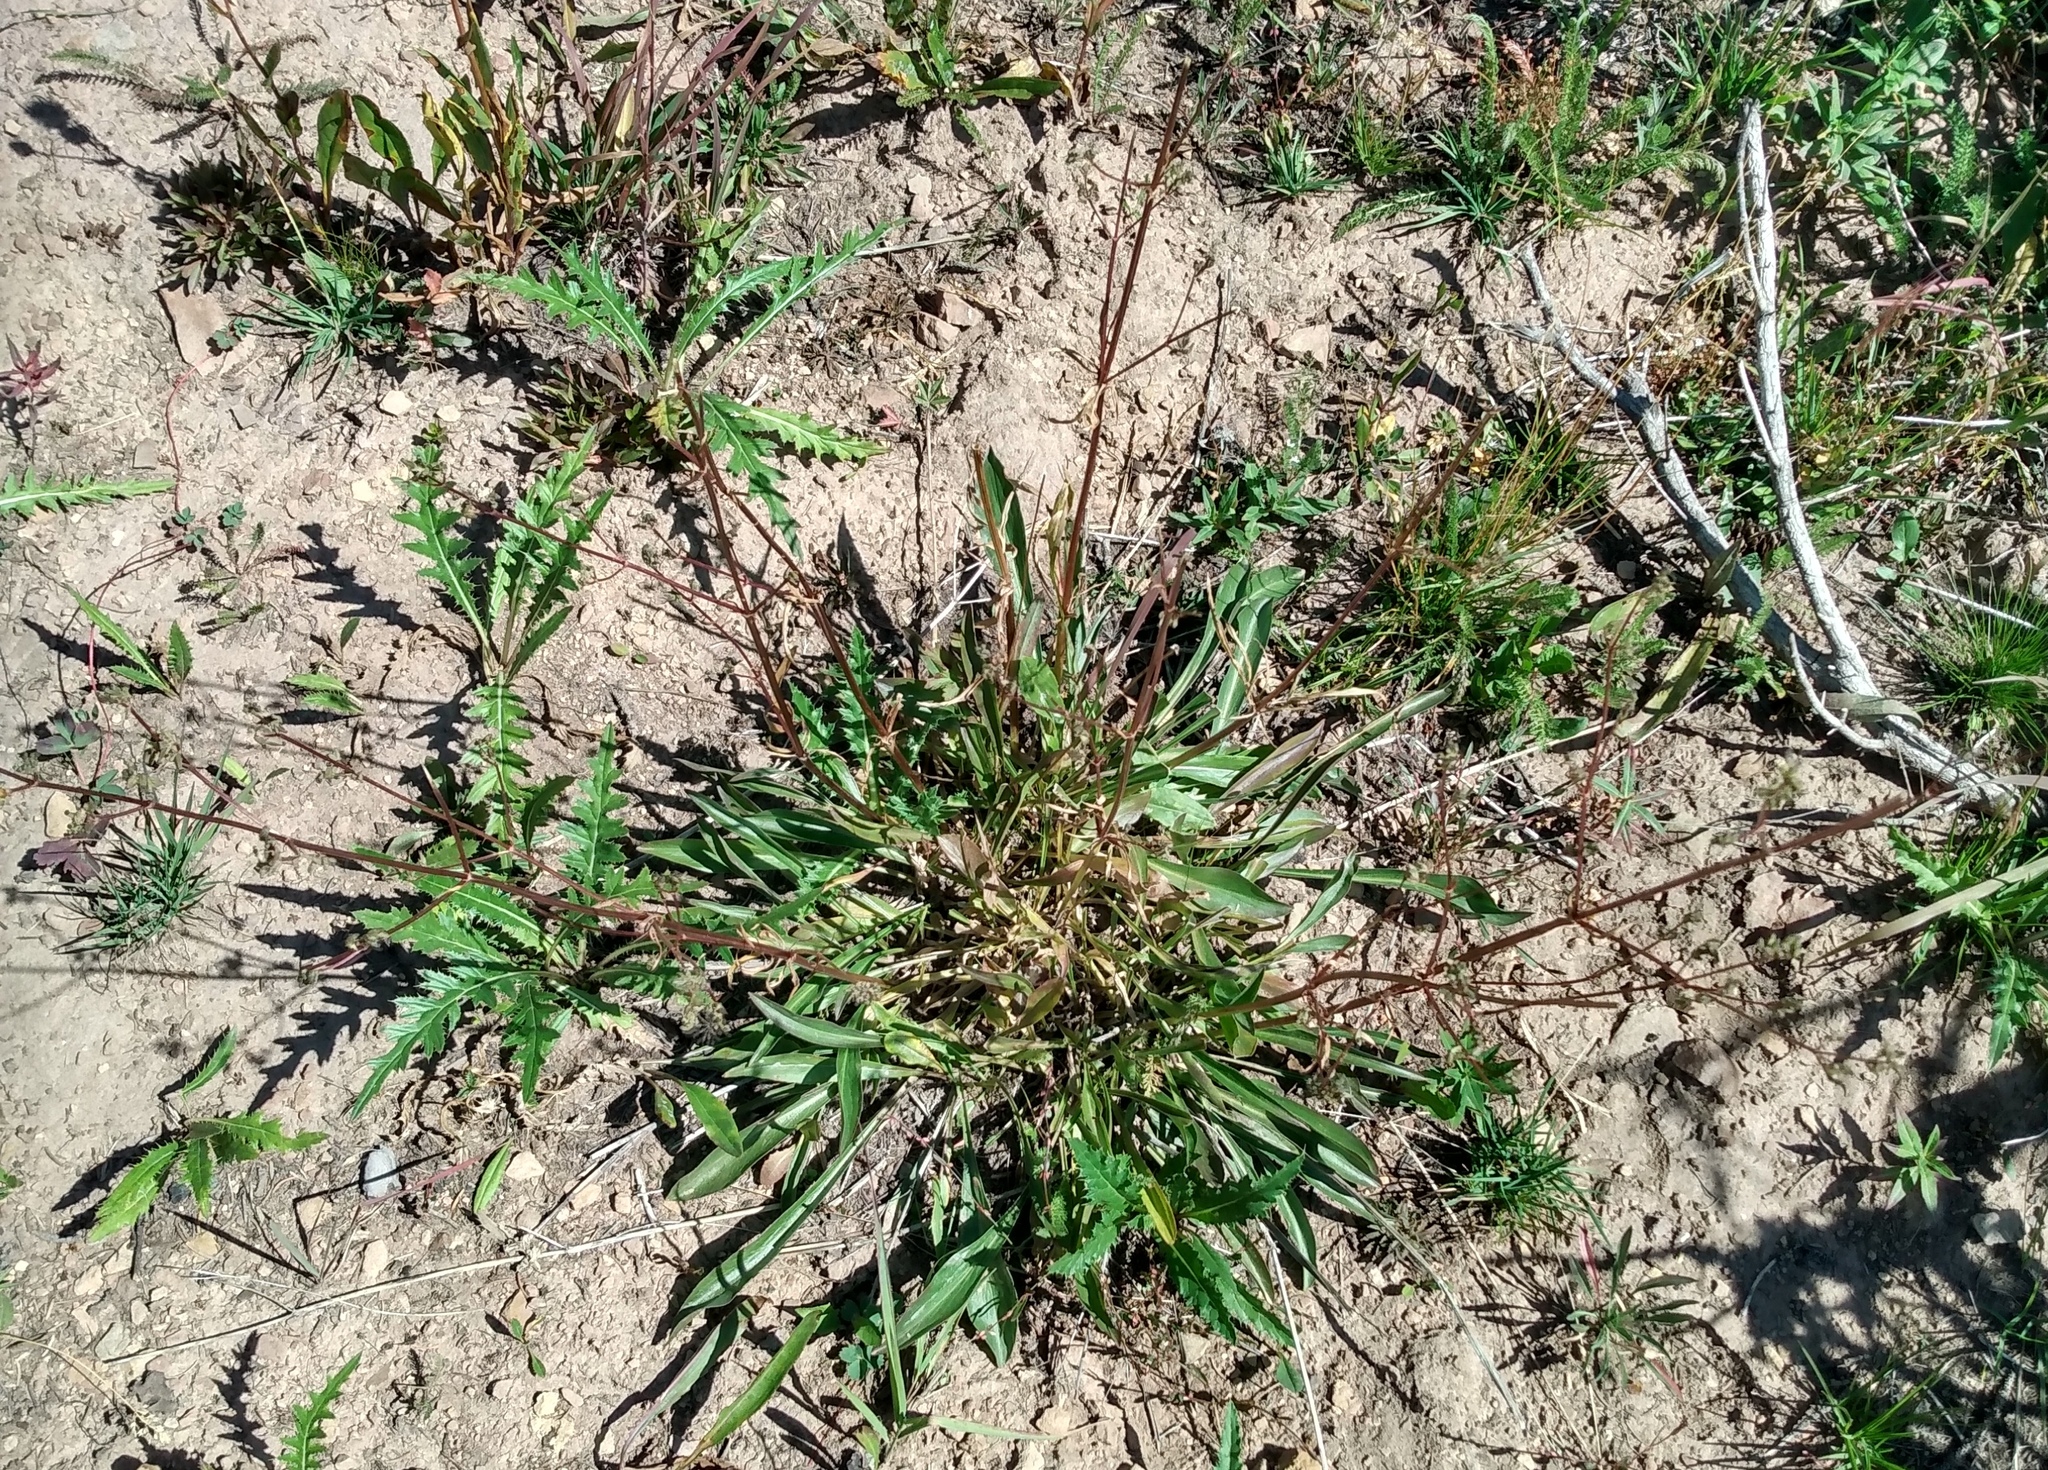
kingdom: Plantae
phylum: Tracheophyta
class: Magnoliopsida
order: Dipsacales
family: Caprifoliaceae
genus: Valeriana
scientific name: Valeriana edulis
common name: Taproot valerian
